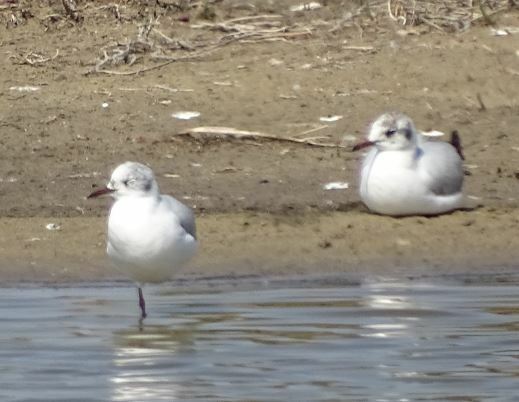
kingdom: Animalia
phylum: Chordata
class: Aves
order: Charadriiformes
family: Laridae
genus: Chroicocephalus
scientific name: Chroicocephalus ridibundus
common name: Black-headed gull
